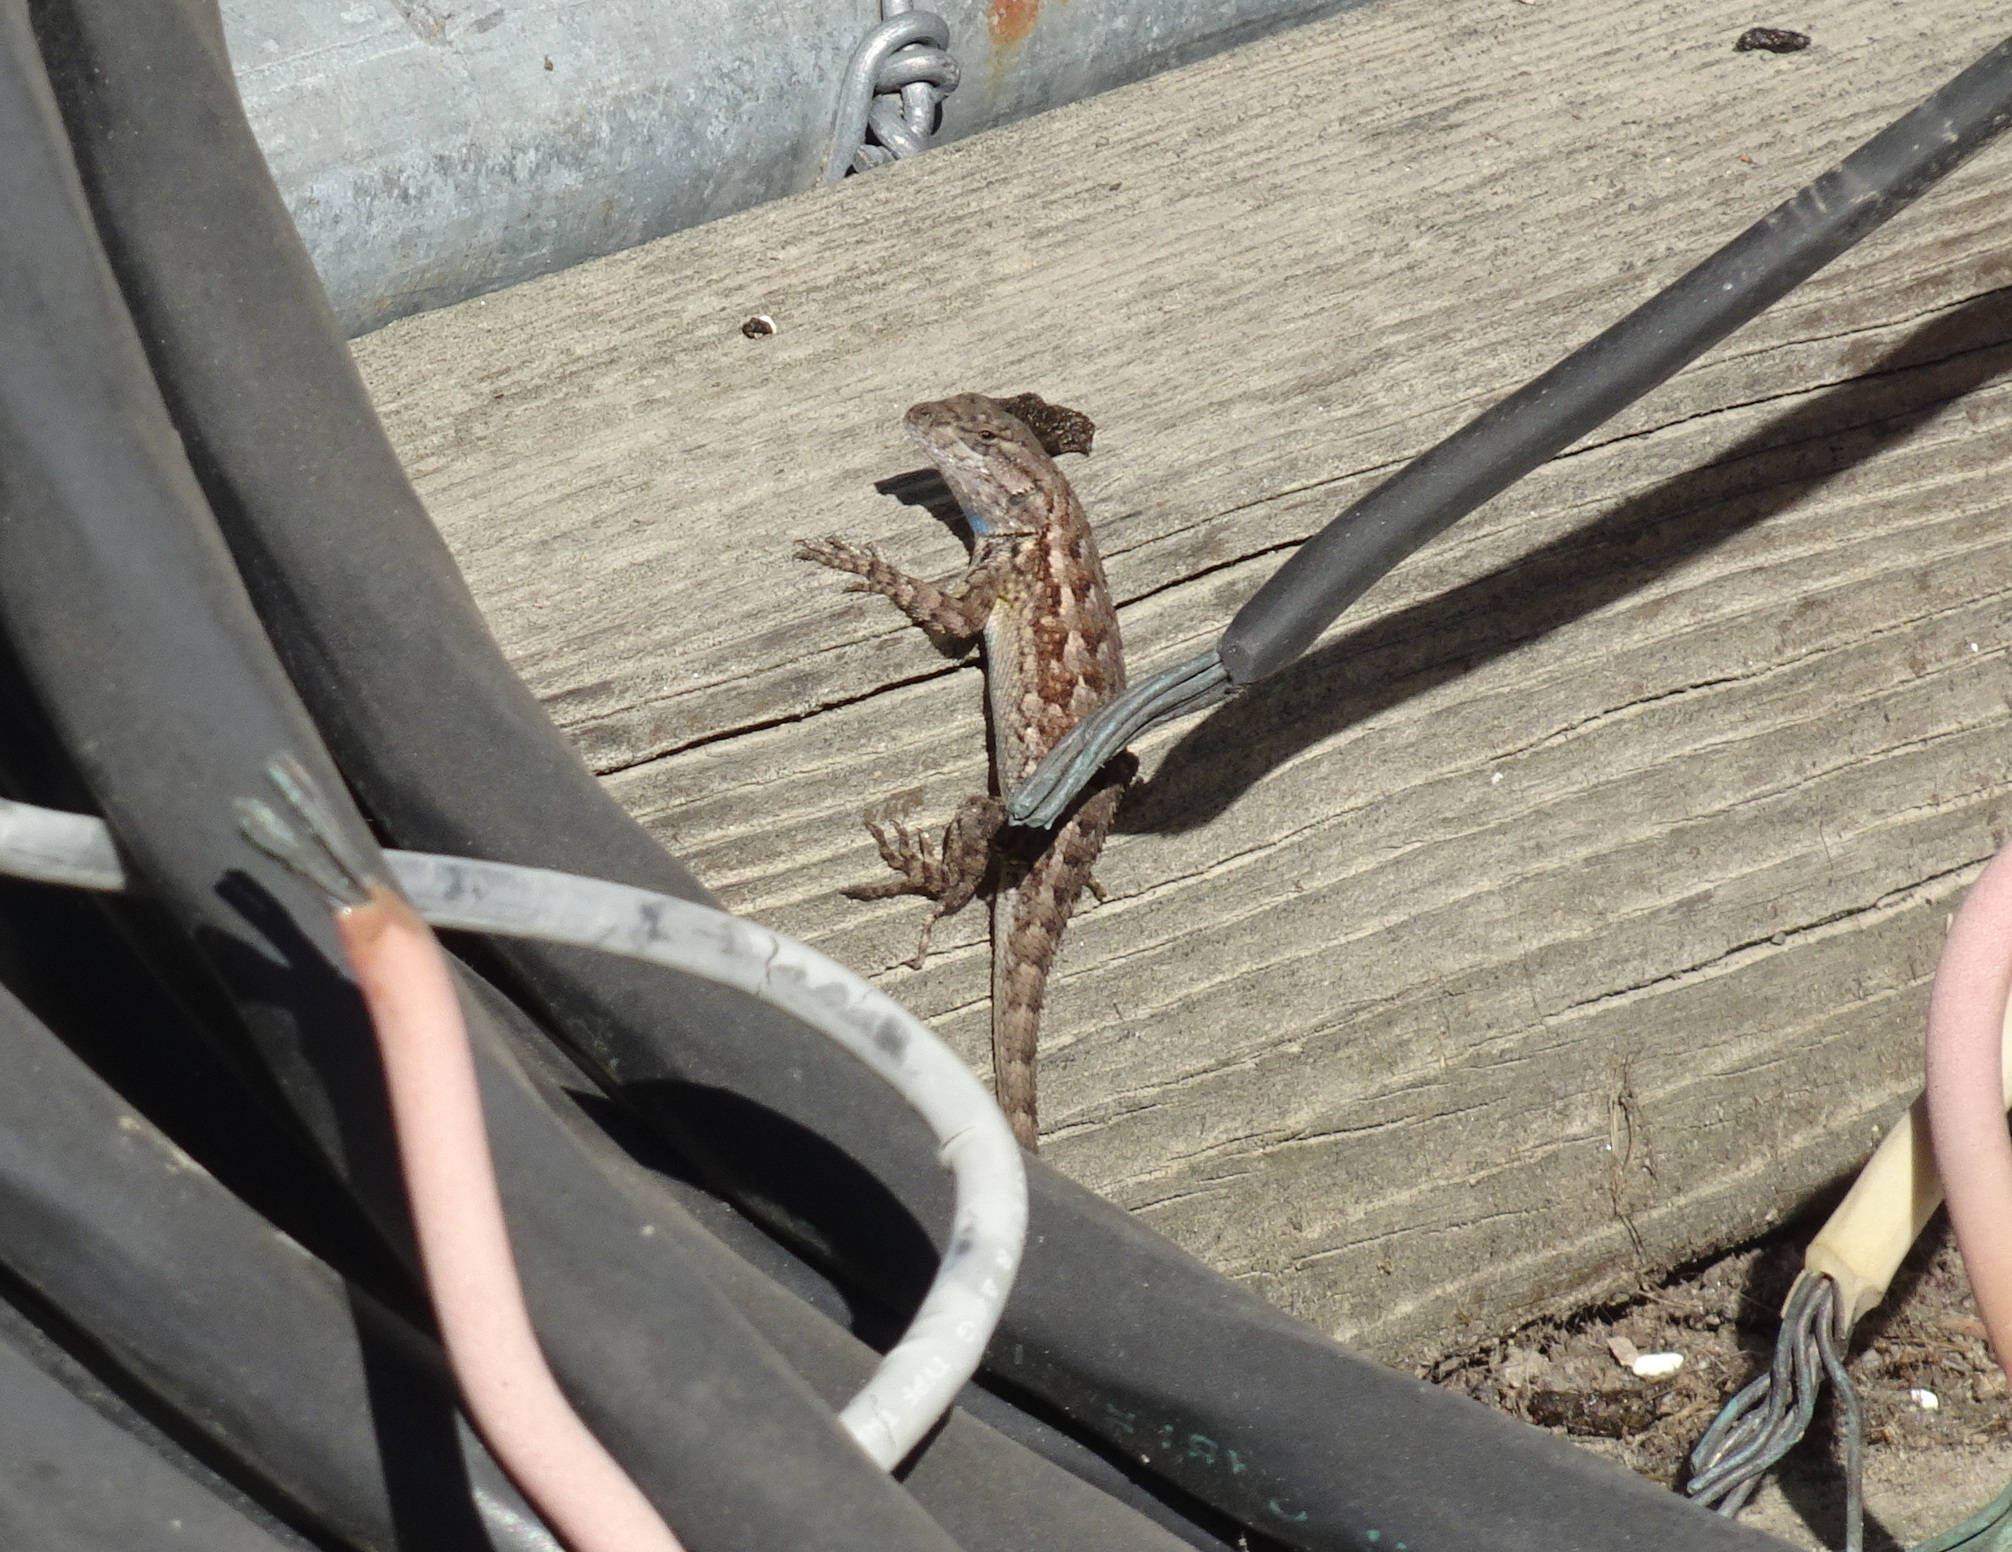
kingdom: Animalia
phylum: Chordata
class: Squamata
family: Phrynosomatidae
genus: Sceloporus
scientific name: Sceloporus occidentalis
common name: Western fence lizard
